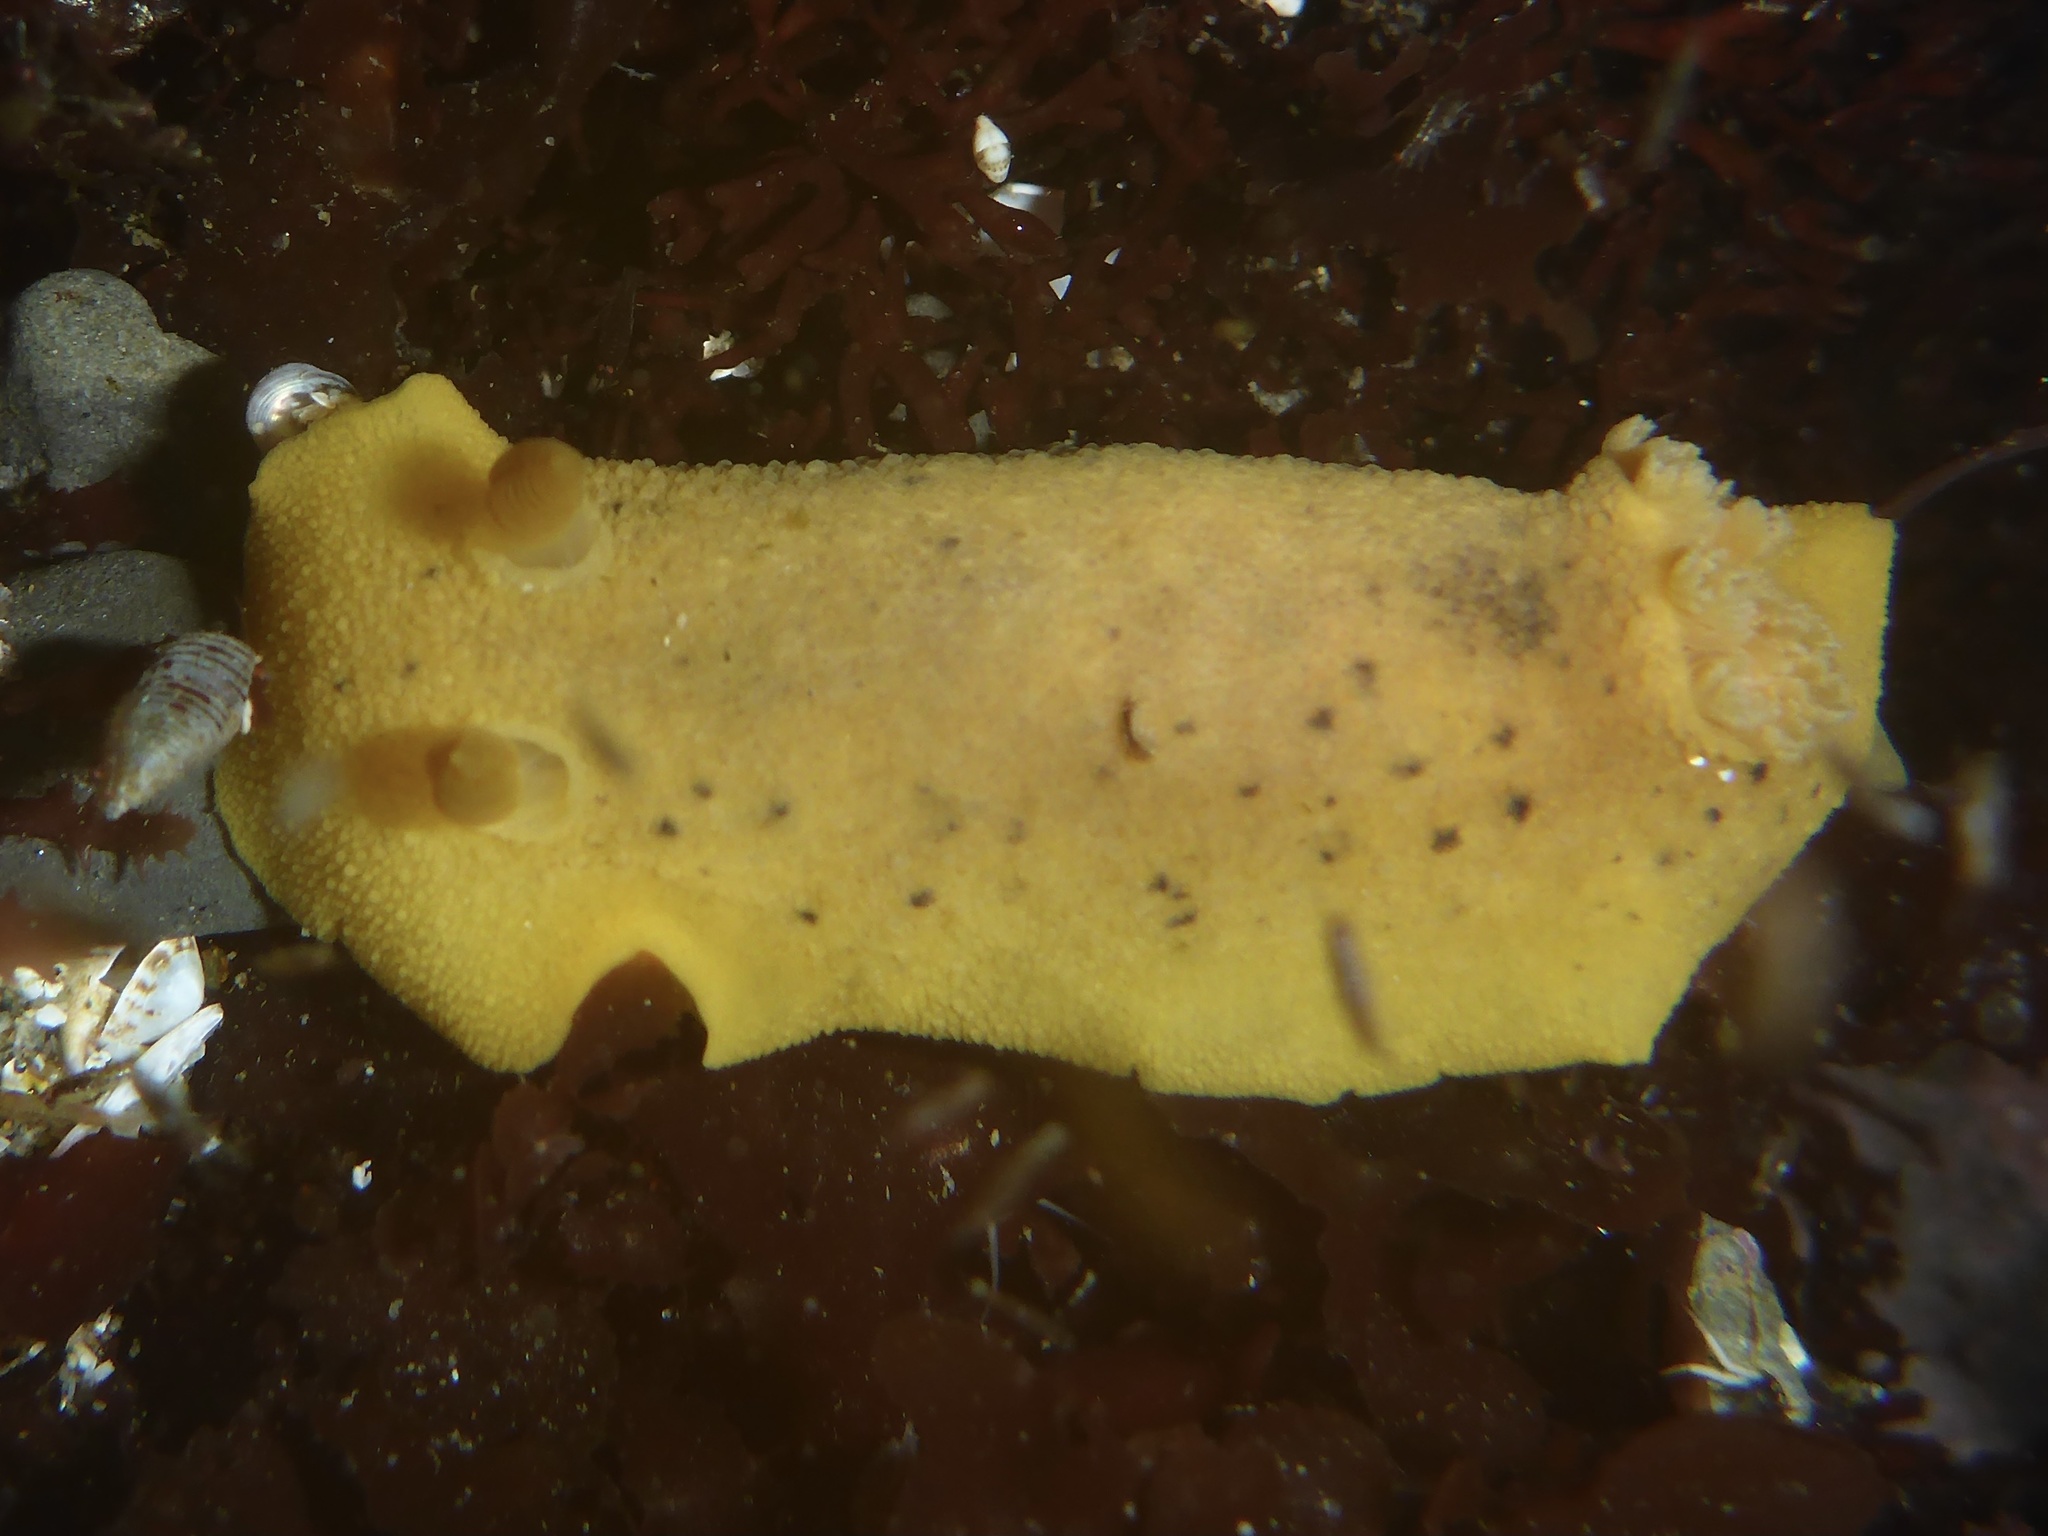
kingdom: Animalia
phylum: Mollusca
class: Gastropoda
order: Nudibranchia
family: Discodorididae
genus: Geitodoris
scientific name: Geitodoris heathi
